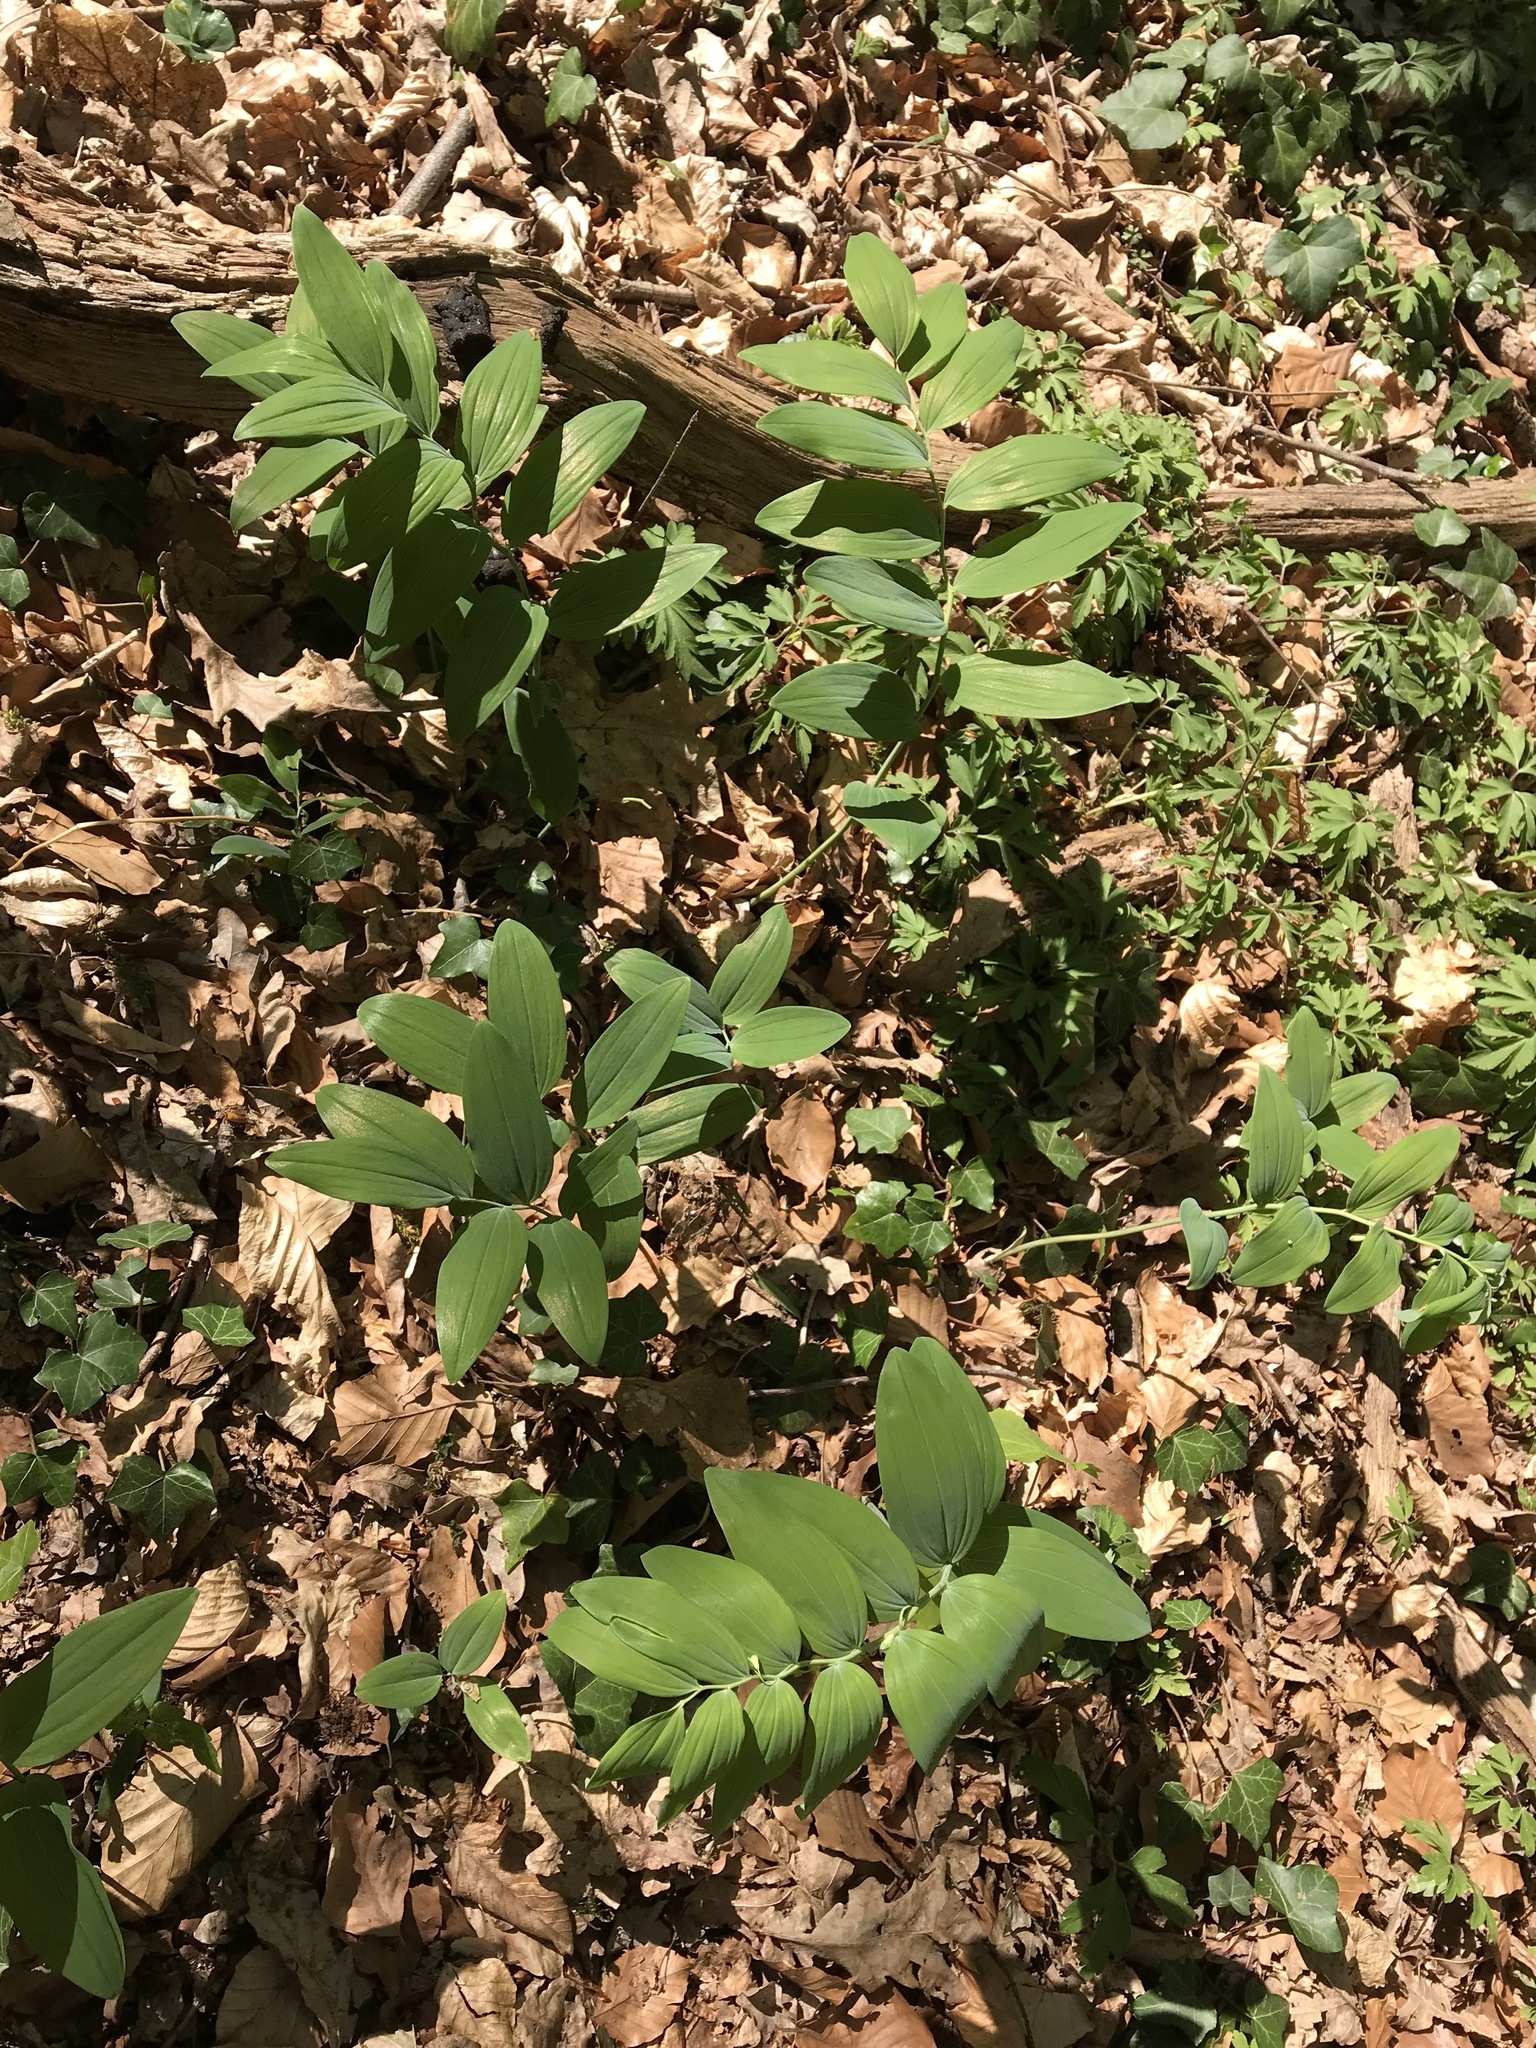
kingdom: Plantae
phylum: Tracheophyta
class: Liliopsida
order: Asparagales
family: Asparagaceae
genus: Polygonatum
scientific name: Polygonatum multiflorum
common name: Solomon's-seal
